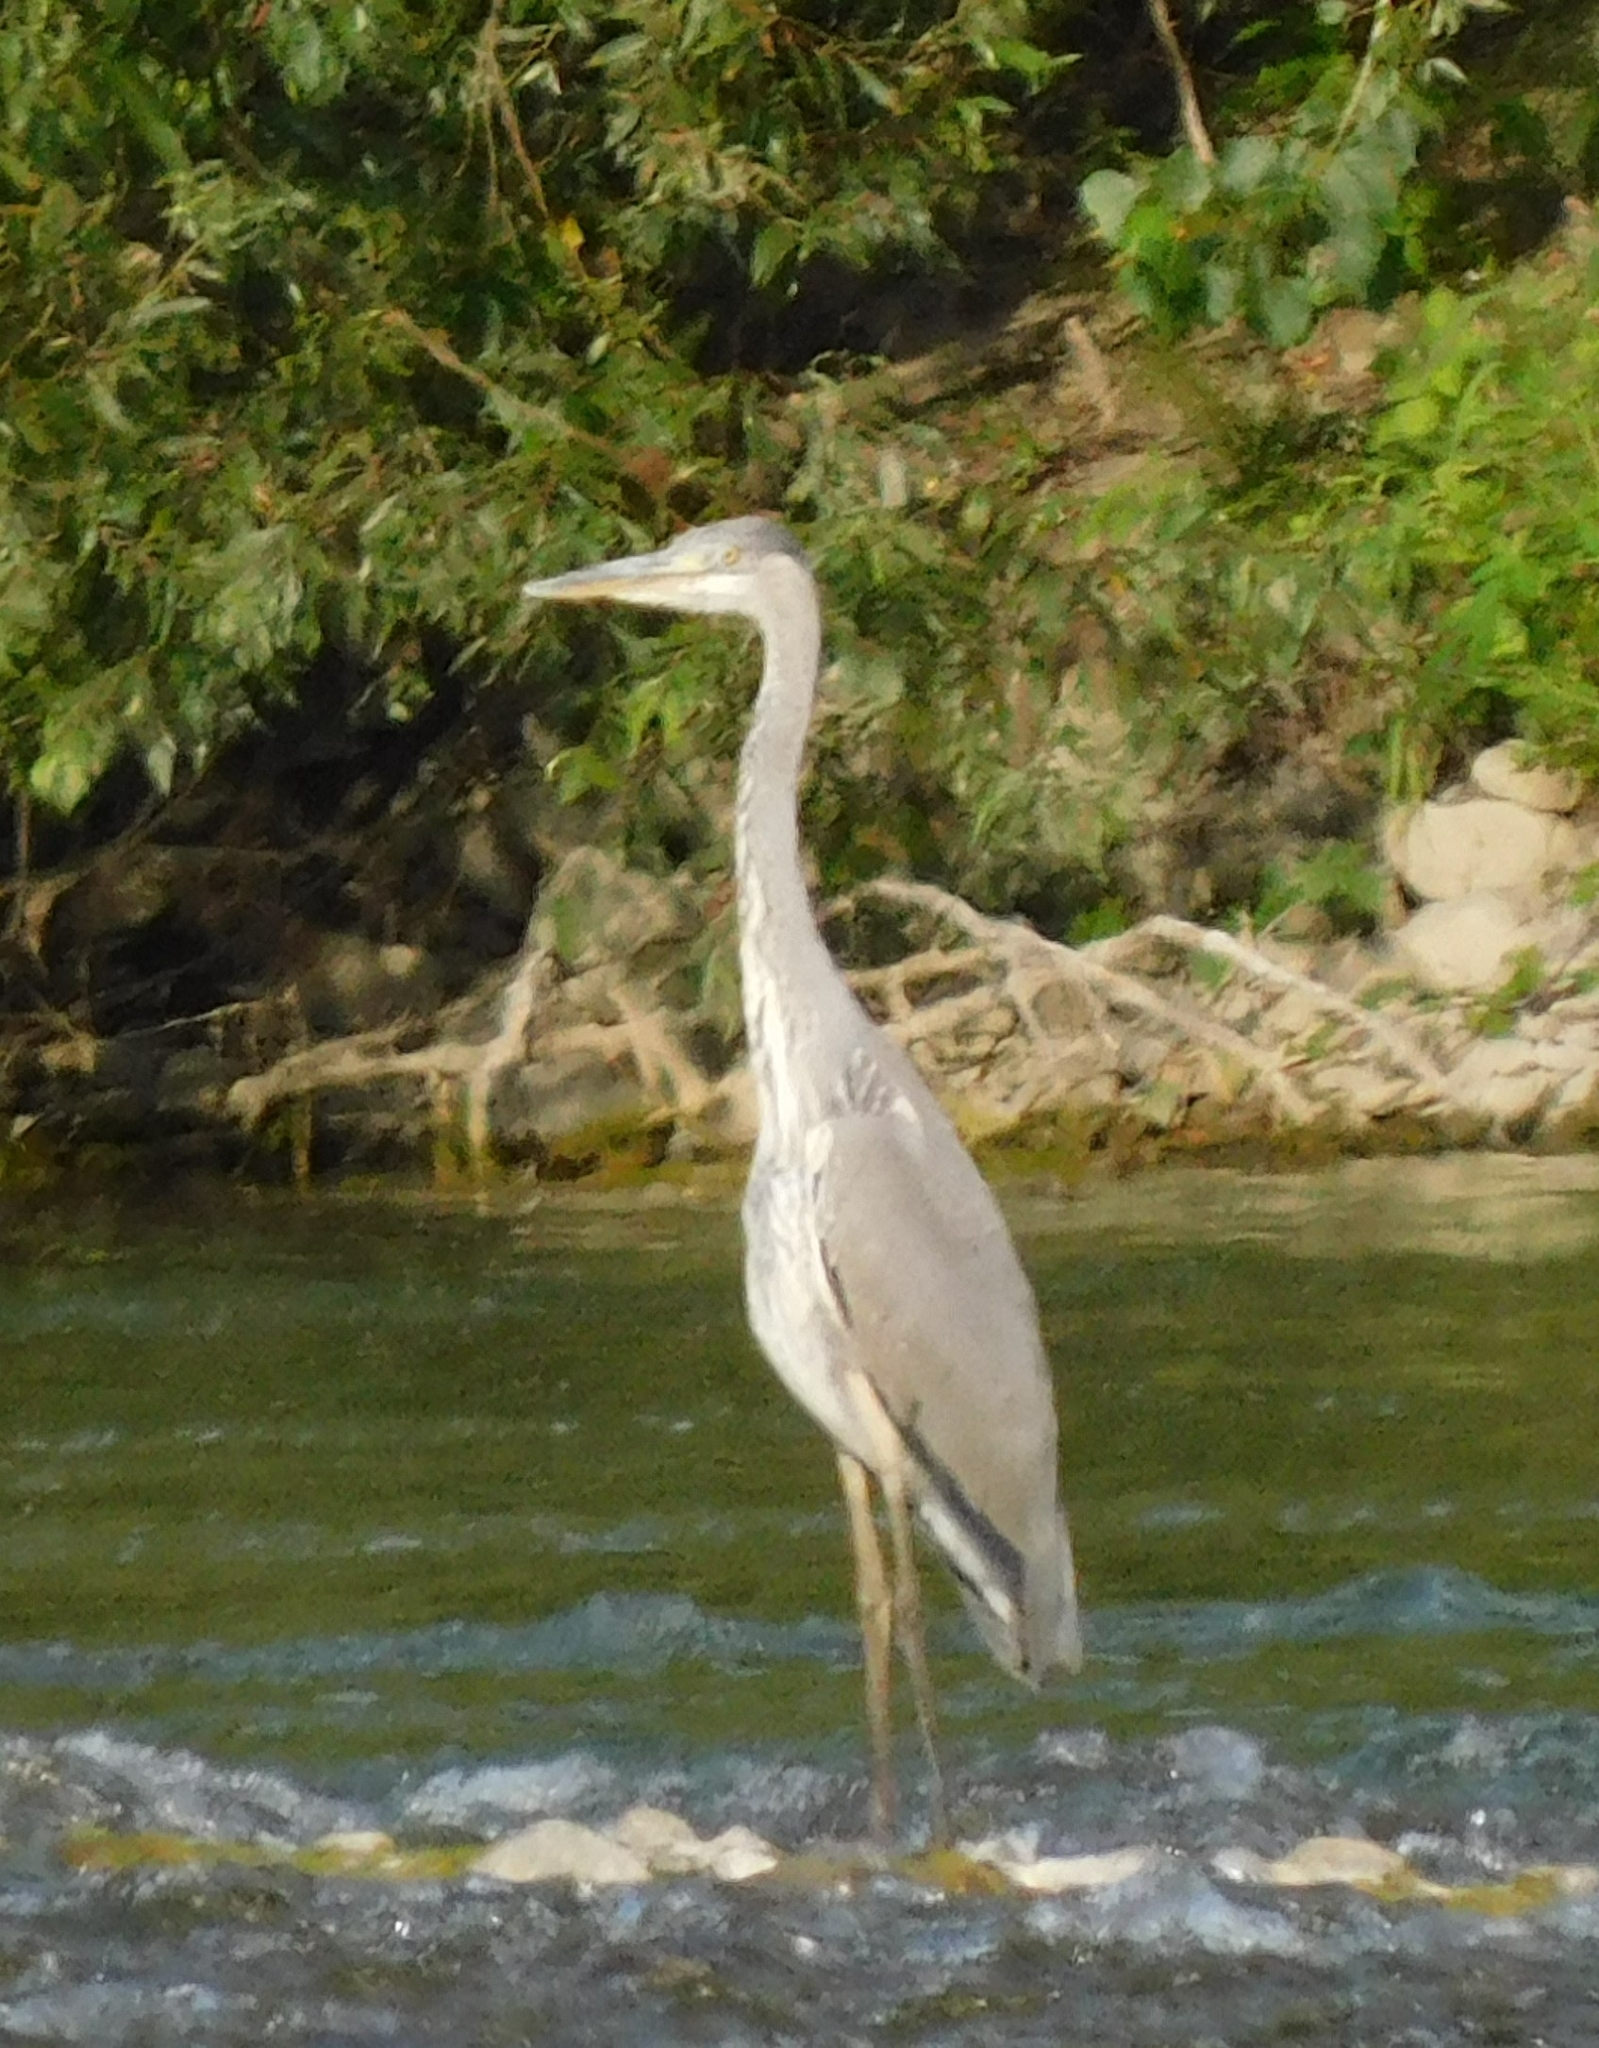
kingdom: Animalia
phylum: Chordata
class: Aves
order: Pelecaniformes
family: Ardeidae
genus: Ardea
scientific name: Ardea cinerea
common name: Grey heron
